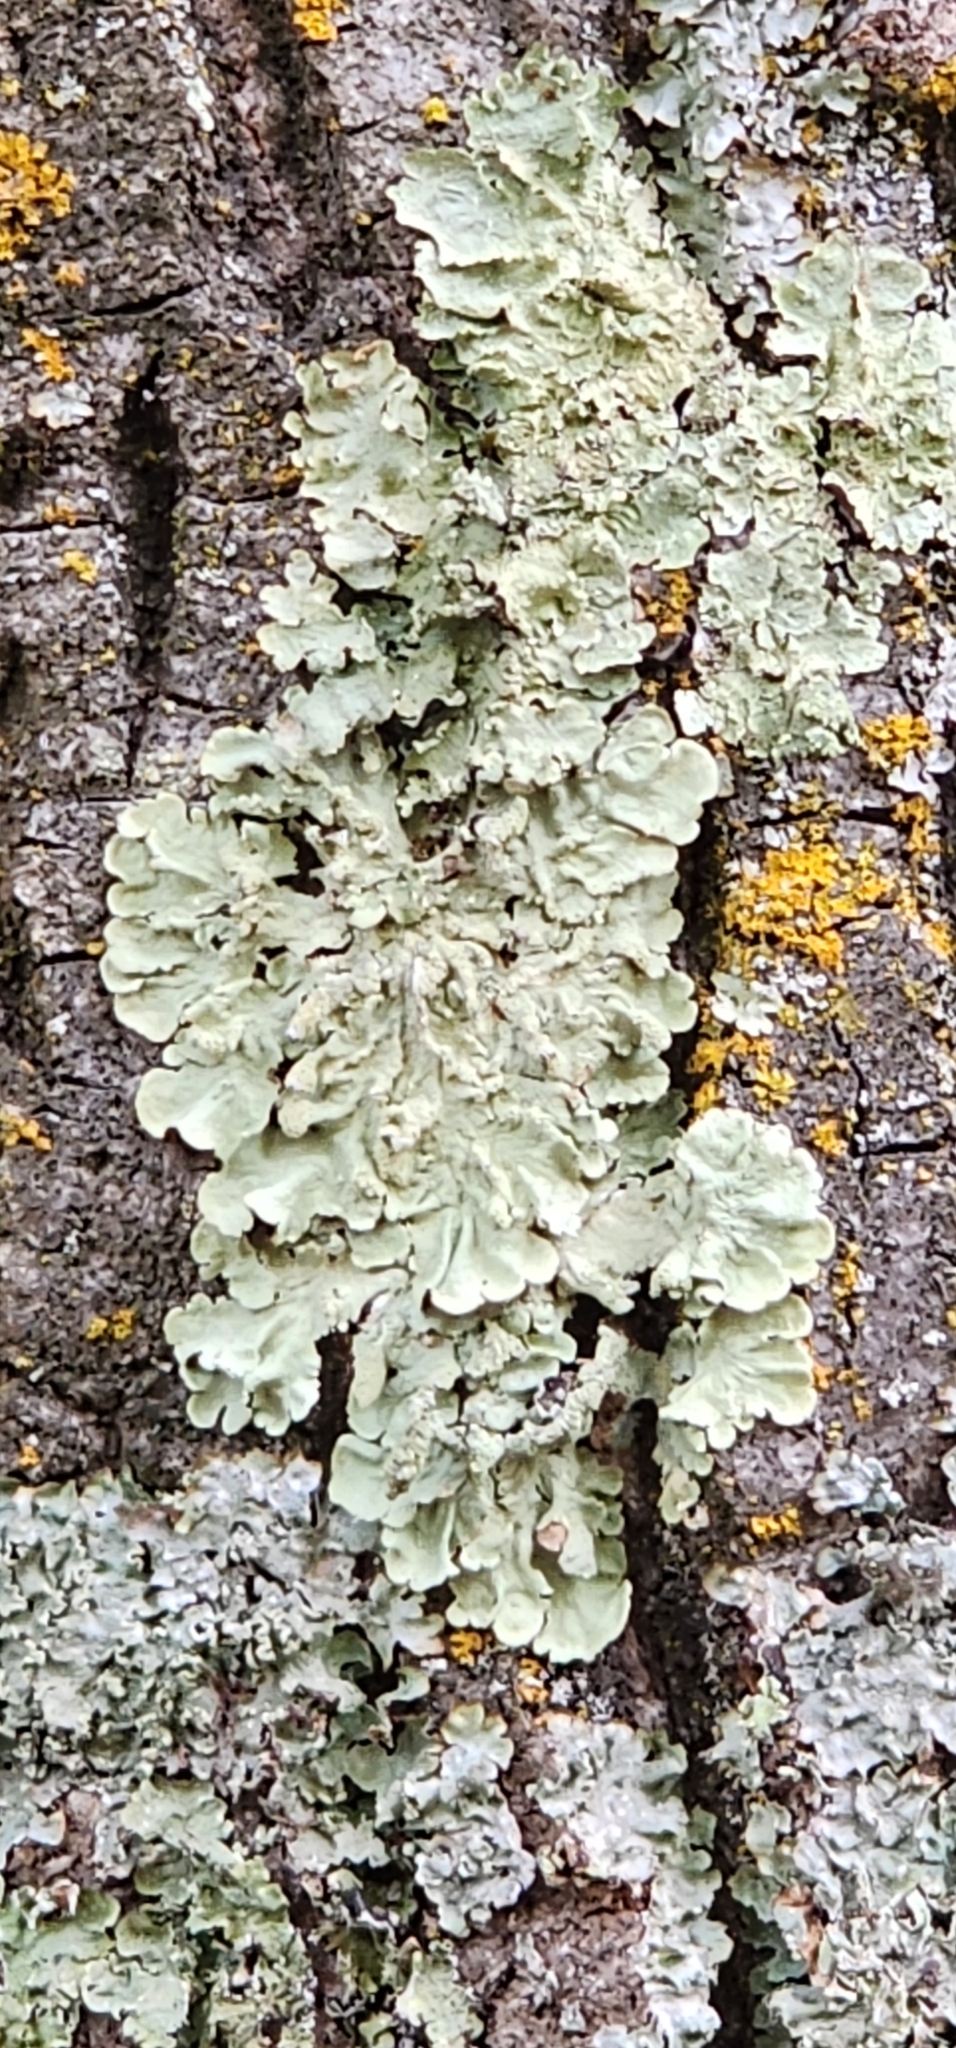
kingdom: Fungi
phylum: Ascomycota
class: Lecanoromycetes
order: Lecanorales
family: Parmeliaceae
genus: Flavoparmelia
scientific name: Flavoparmelia caperata
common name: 40-mile per hour lichen
